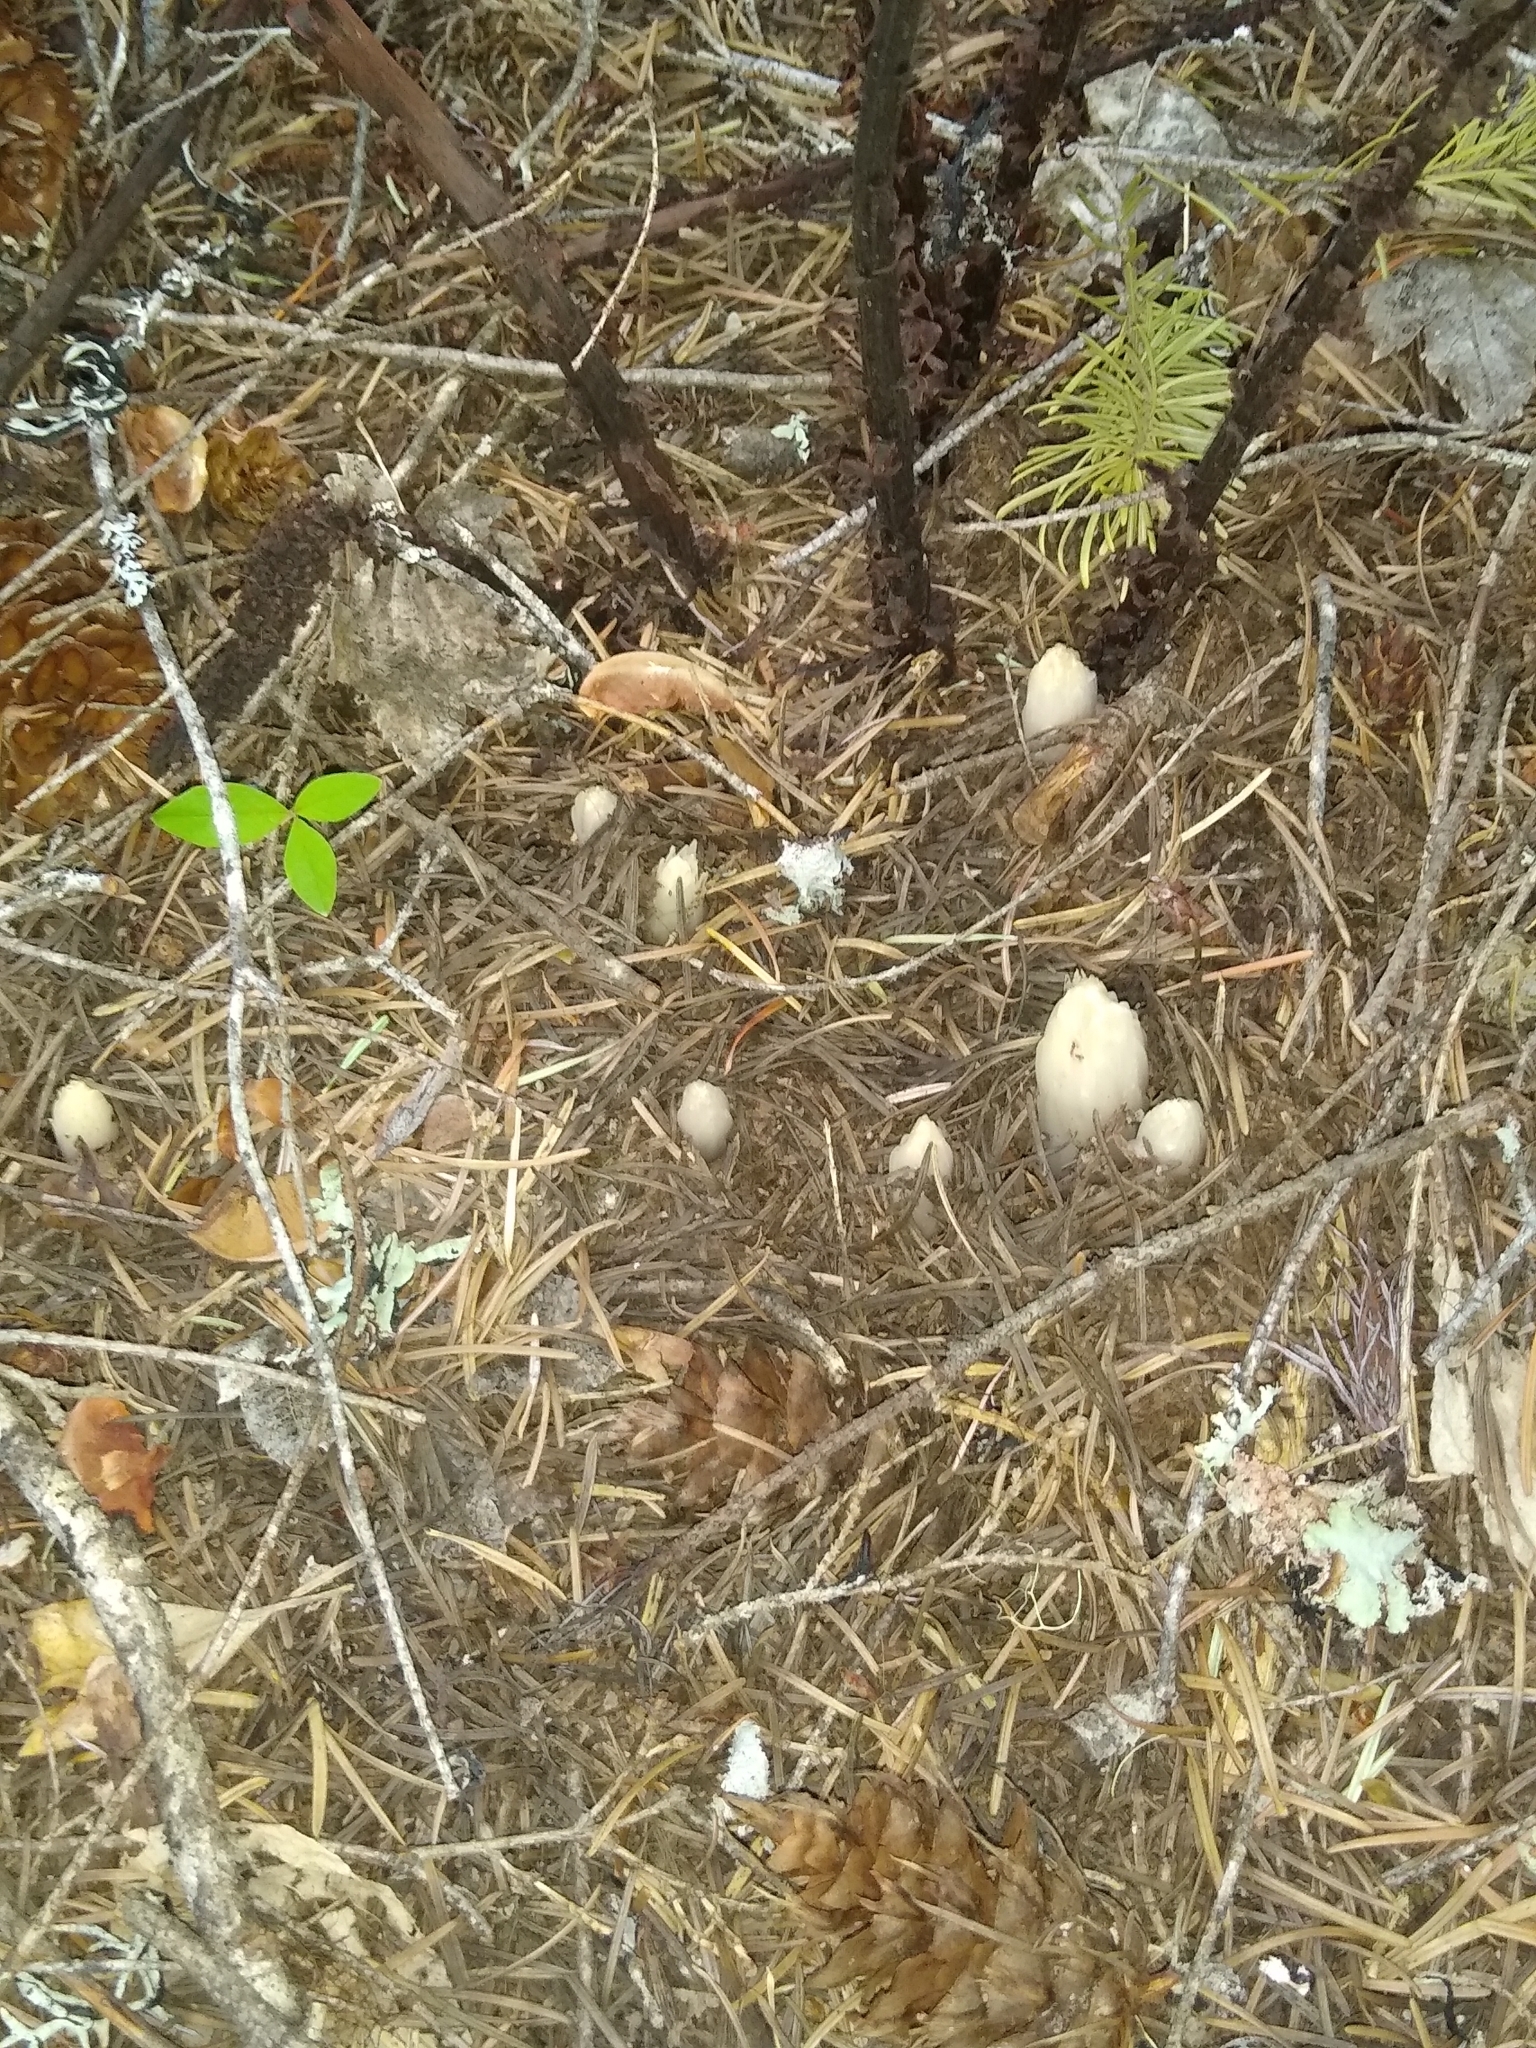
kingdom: Plantae
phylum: Tracheophyta
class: Magnoliopsida
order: Ericales
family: Ericaceae
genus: Allotropa
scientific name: Allotropa virgata
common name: Candy-striped allotropa
